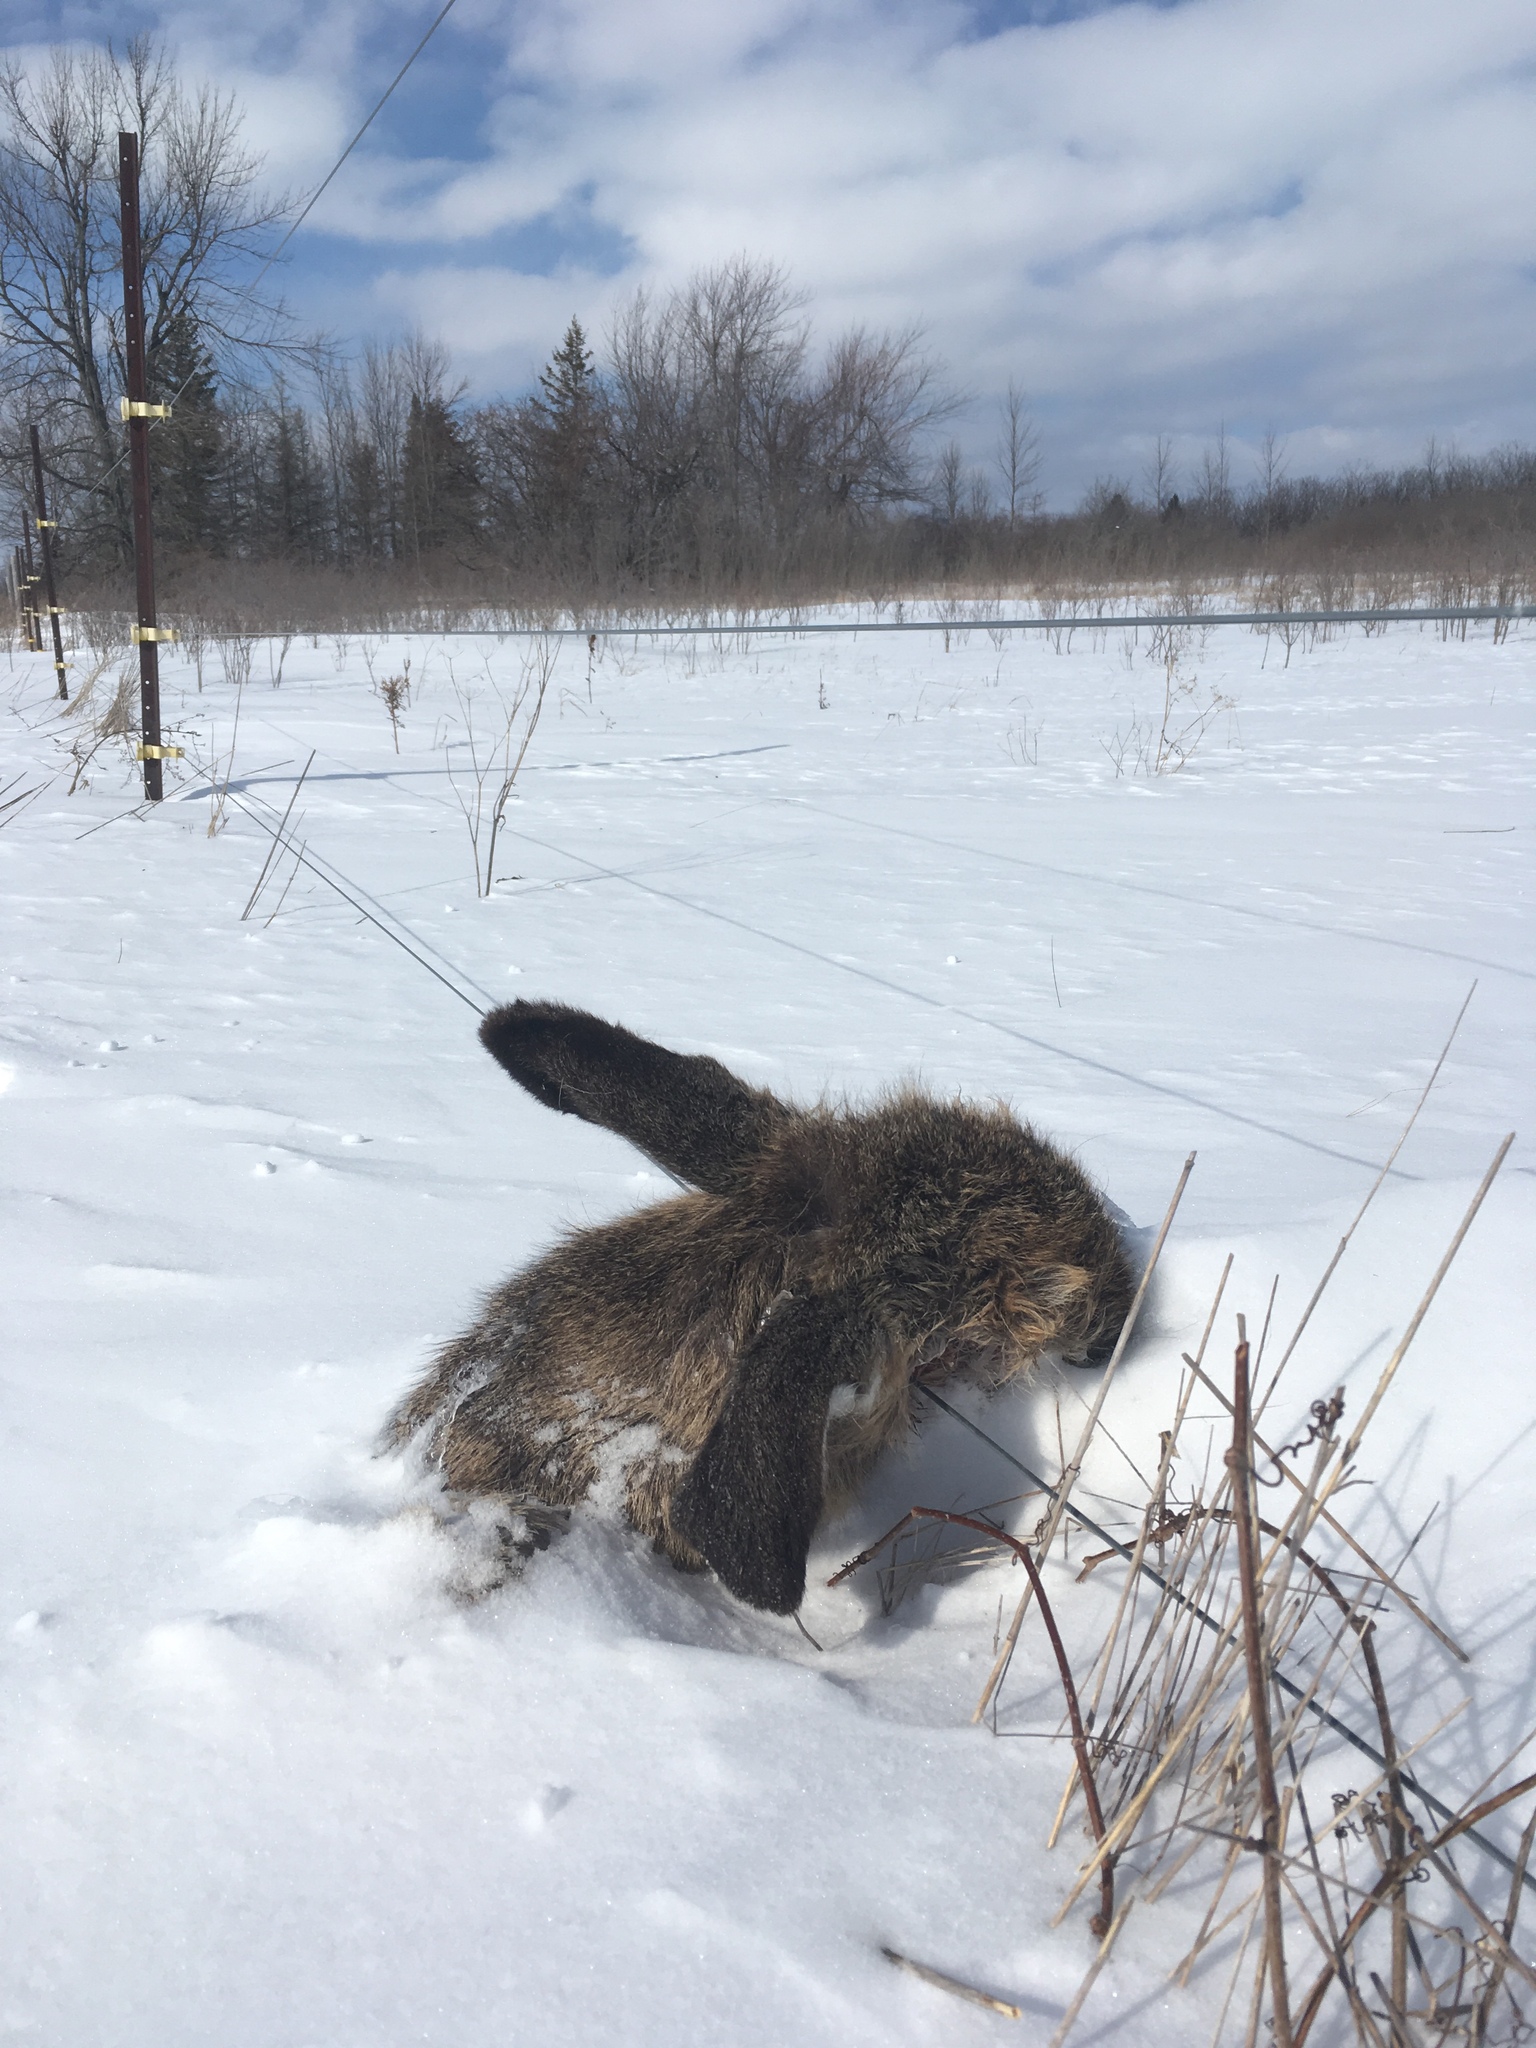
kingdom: Animalia
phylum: Chordata
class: Mammalia
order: Artiodactyla
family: Cervidae
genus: Odocoileus
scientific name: Odocoileus virginianus
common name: White-tailed deer
